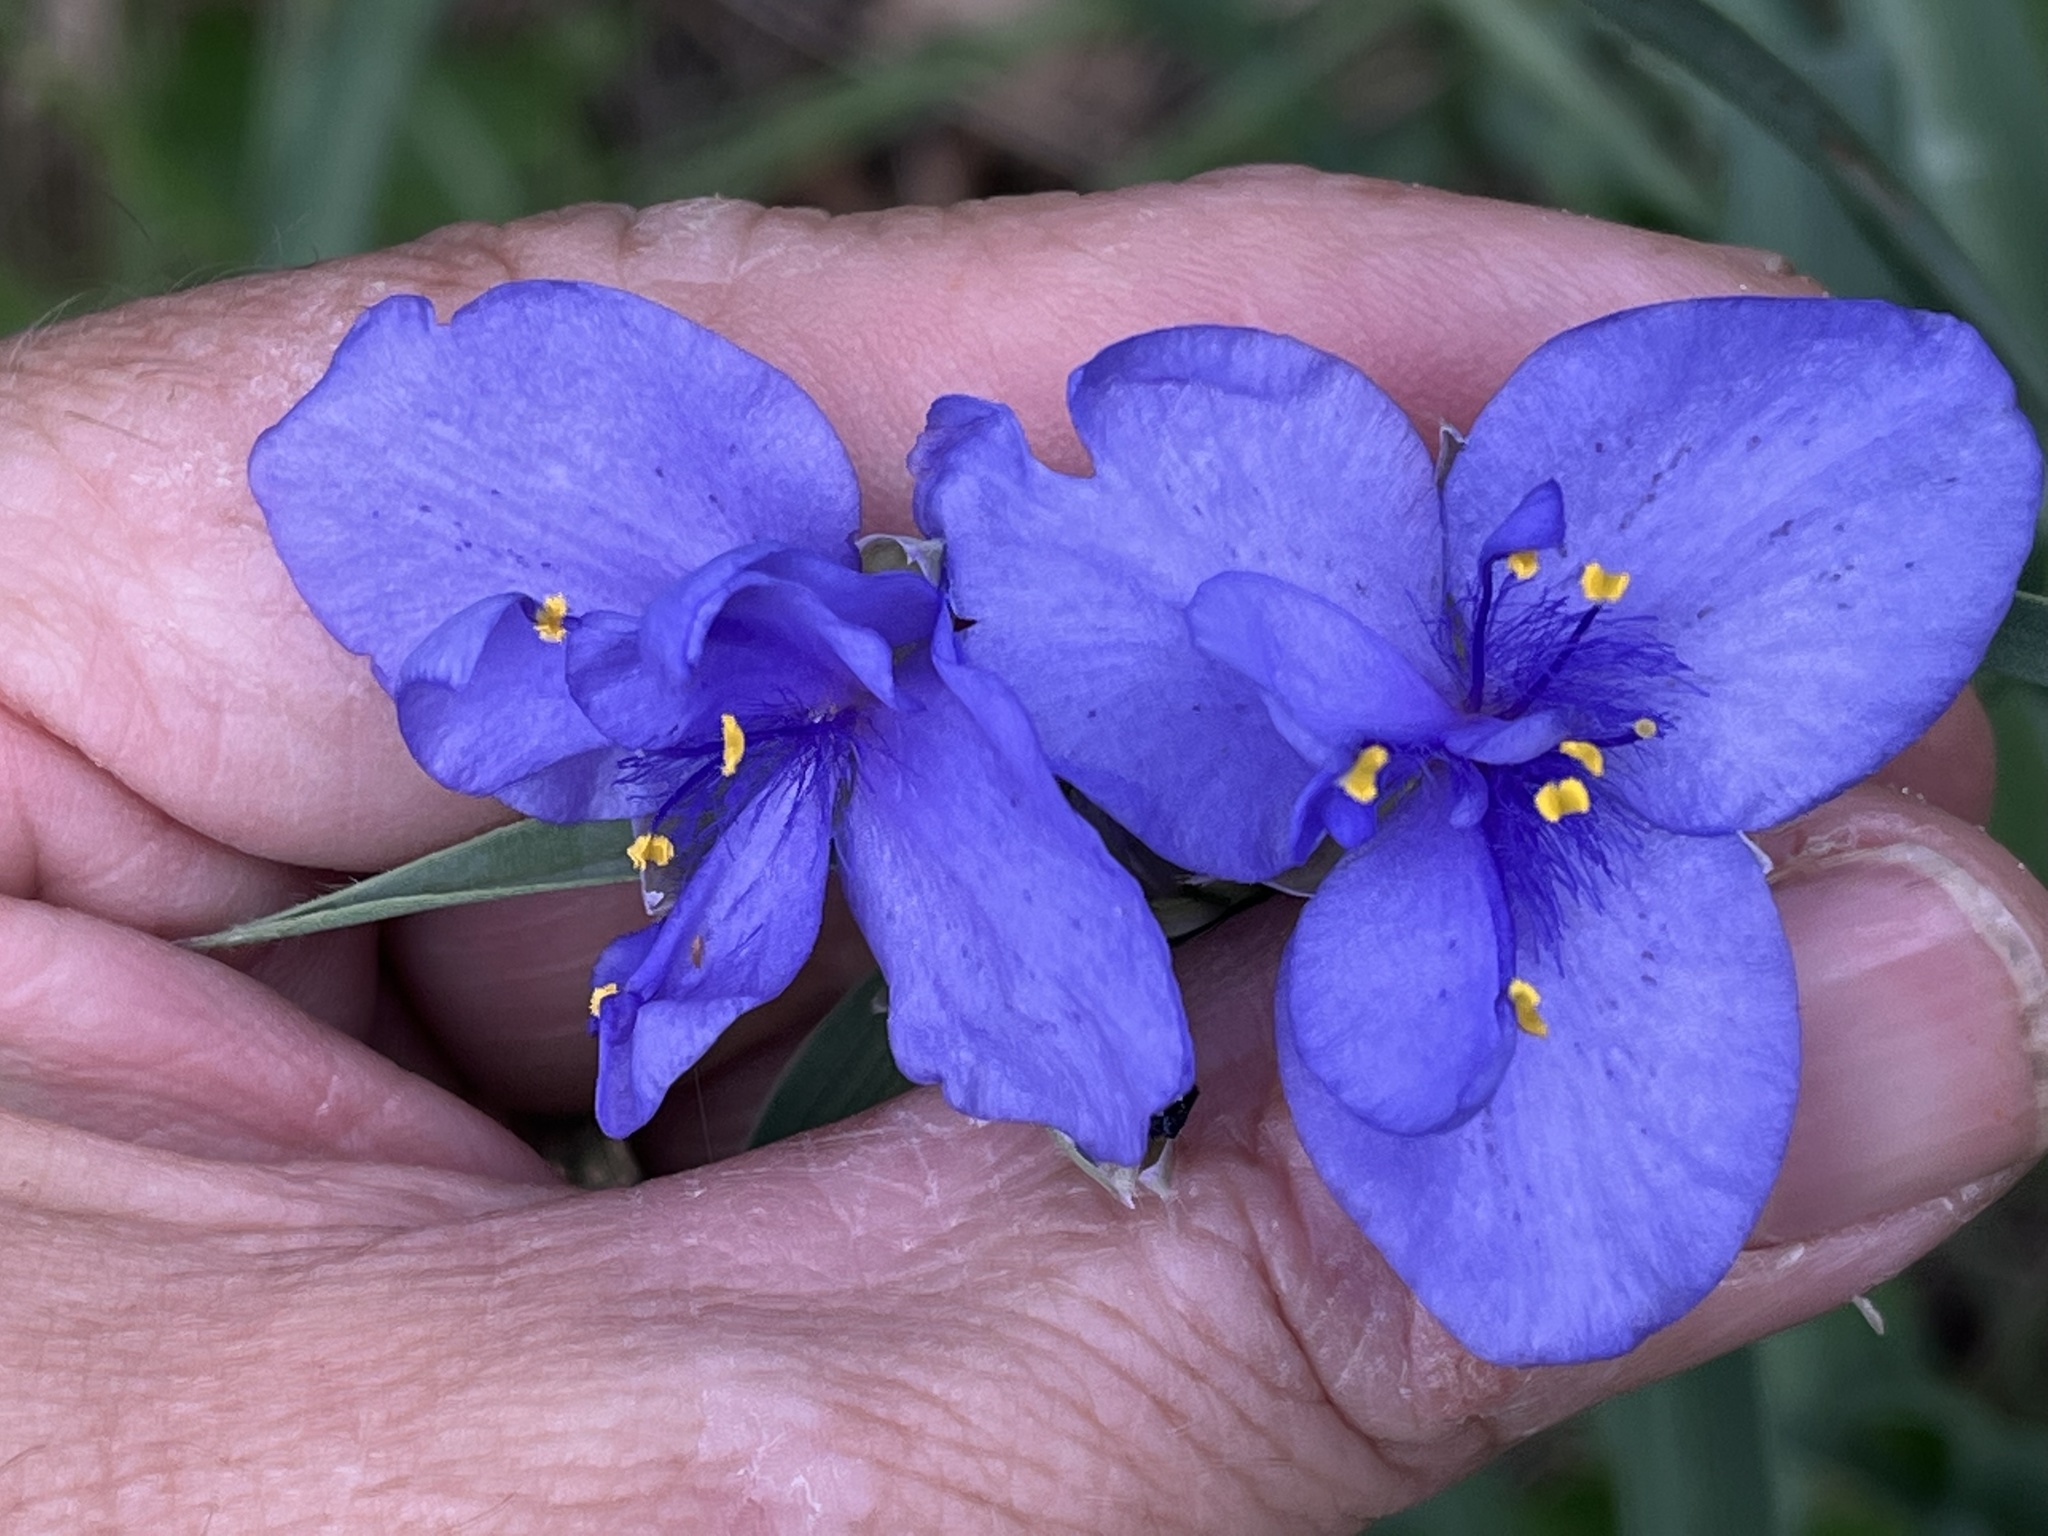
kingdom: Plantae
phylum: Tracheophyta
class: Liliopsida
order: Commelinales
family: Commelinaceae
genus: Tradescantia
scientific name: Tradescantia ohiensis
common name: Ohio spiderwort
